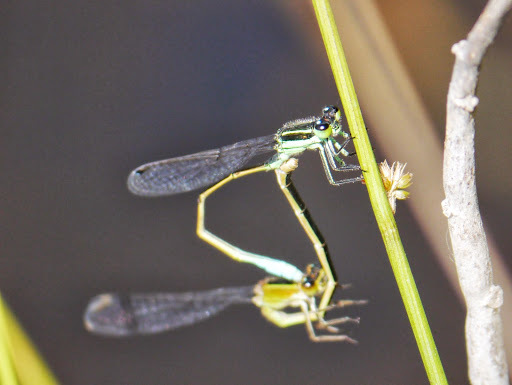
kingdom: Animalia
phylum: Arthropoda
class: Insecta
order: Odonata
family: Coenagrionidae
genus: Ischnura
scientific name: Ischnura ramburii
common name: Rambur's forktail
